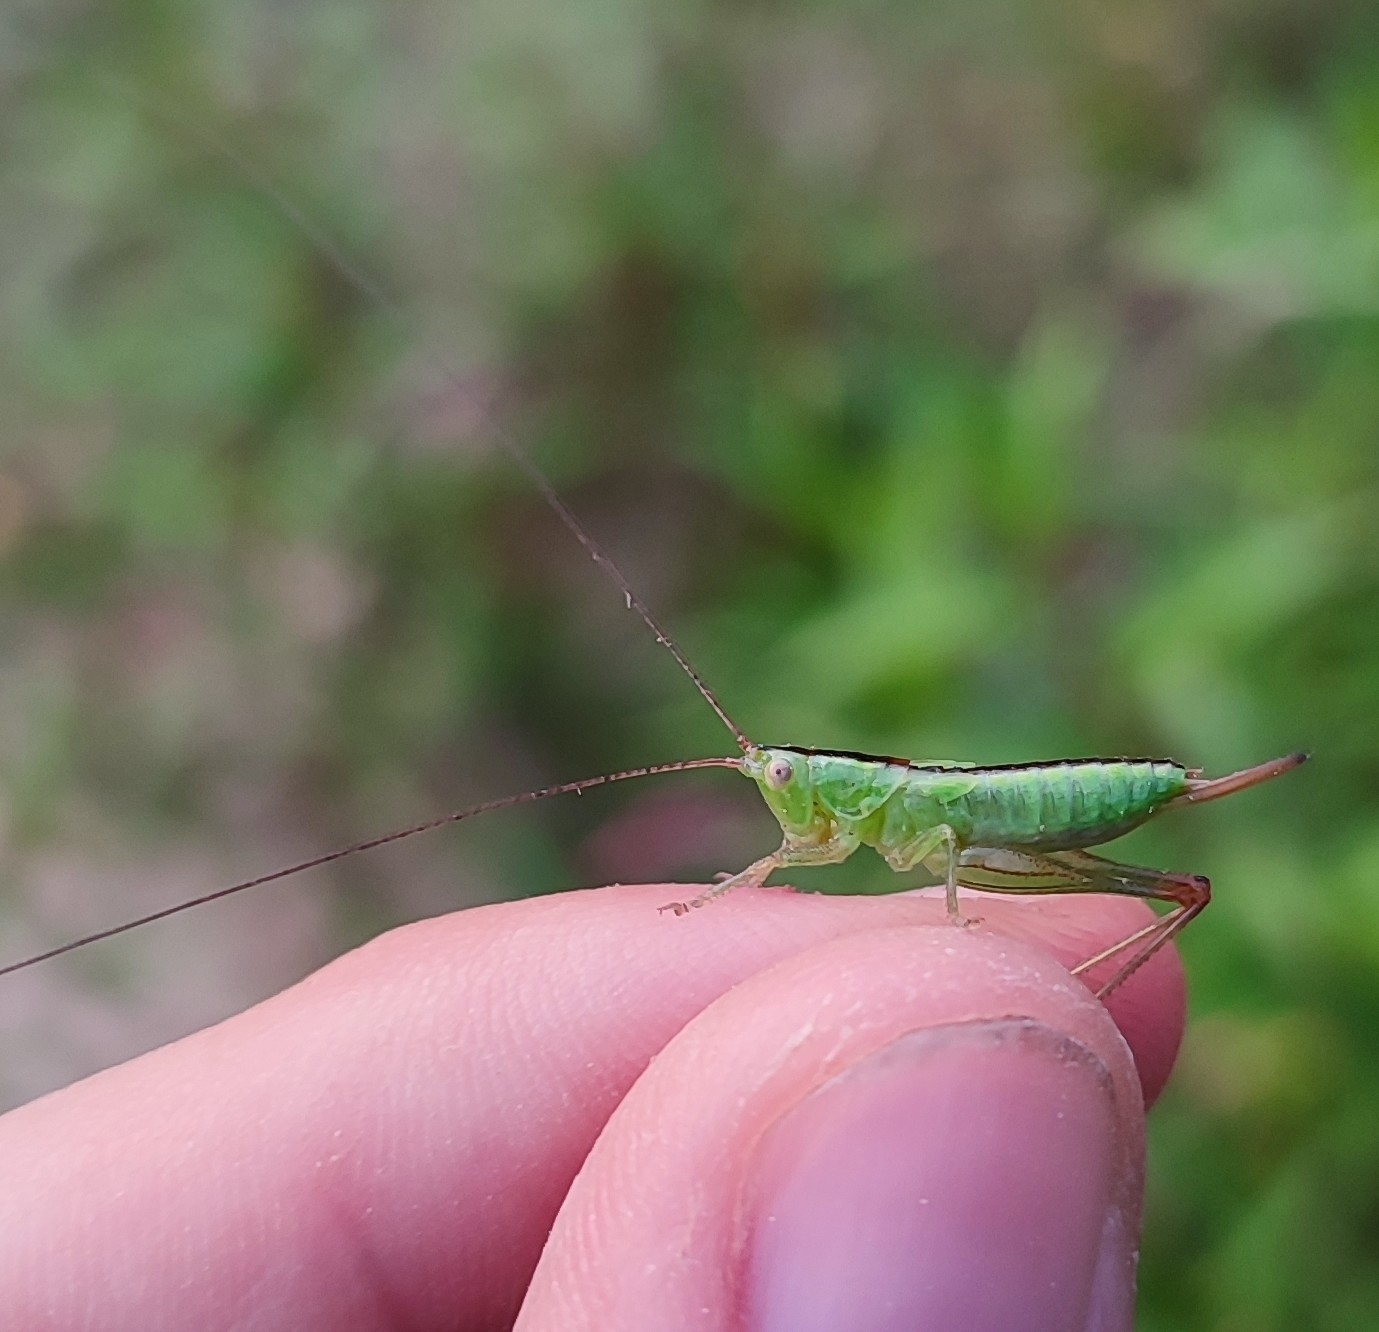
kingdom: Animalia
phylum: Arthropoda
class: Insecta
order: Orthoptera
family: Tettigoniidae
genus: Conocephalus
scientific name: Conocephalus fuscus
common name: Long-winged conehead
